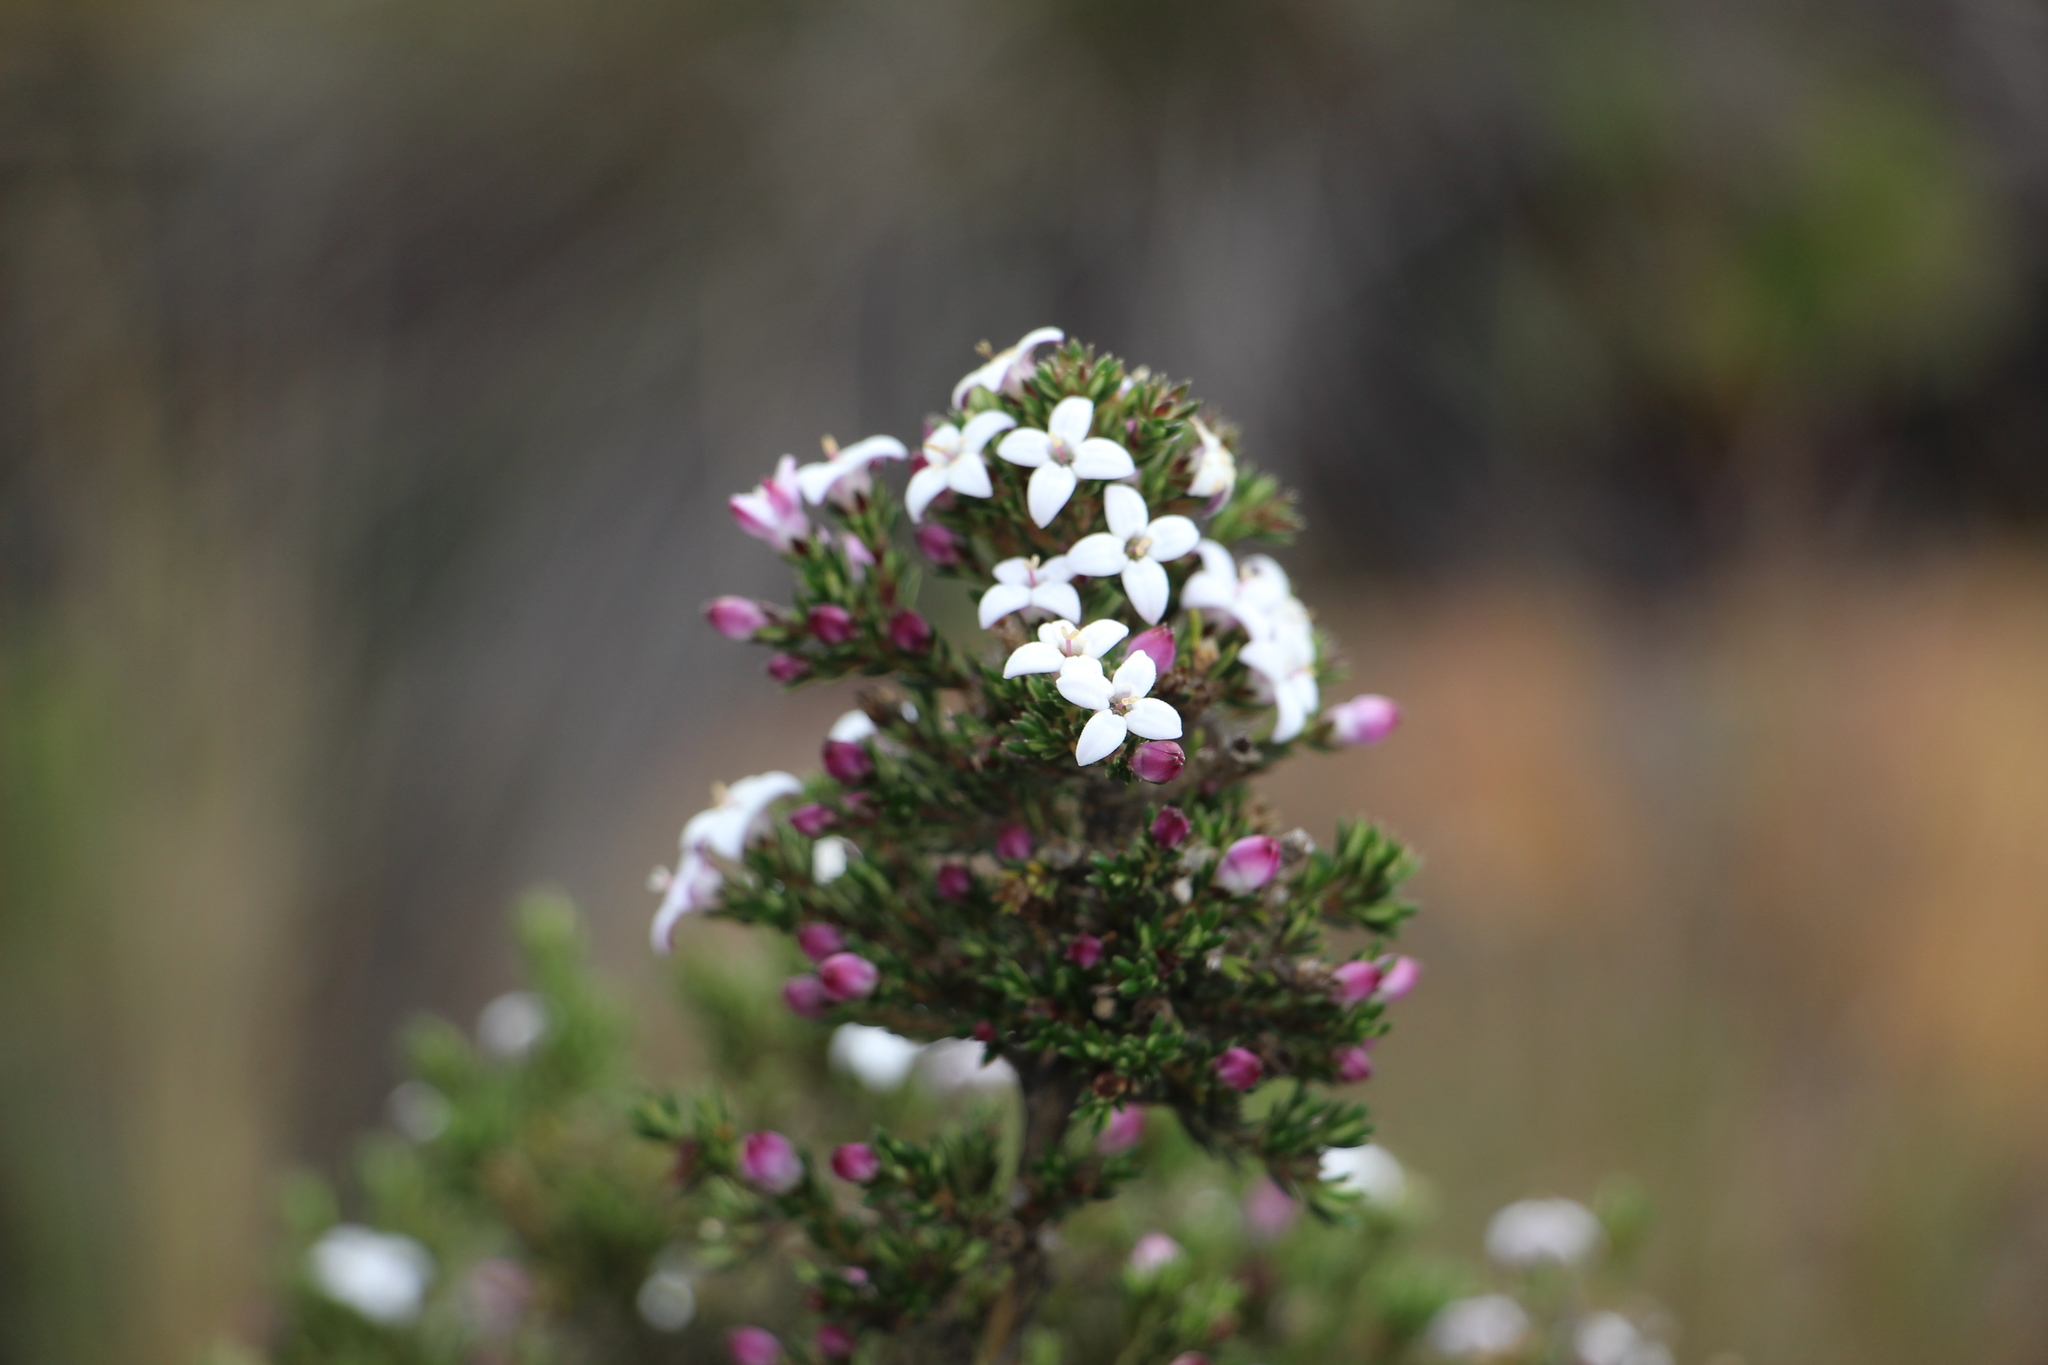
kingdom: Plantae
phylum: Tracheophyta
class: Magnoliopsida
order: Gentianales
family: Rubiaceae
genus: Arcytophyllum
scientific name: Arcytophyllum nitidum
